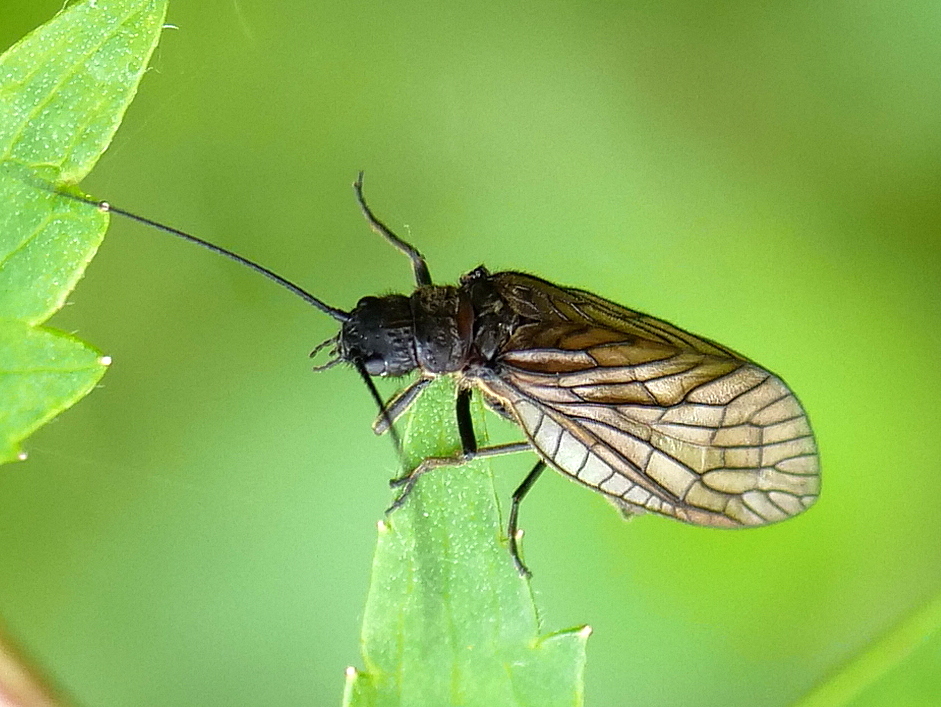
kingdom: Animalia
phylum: Arthropoda
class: Insecta
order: Megaloptera
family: Sialidae
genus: Sialis
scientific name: Sialis
